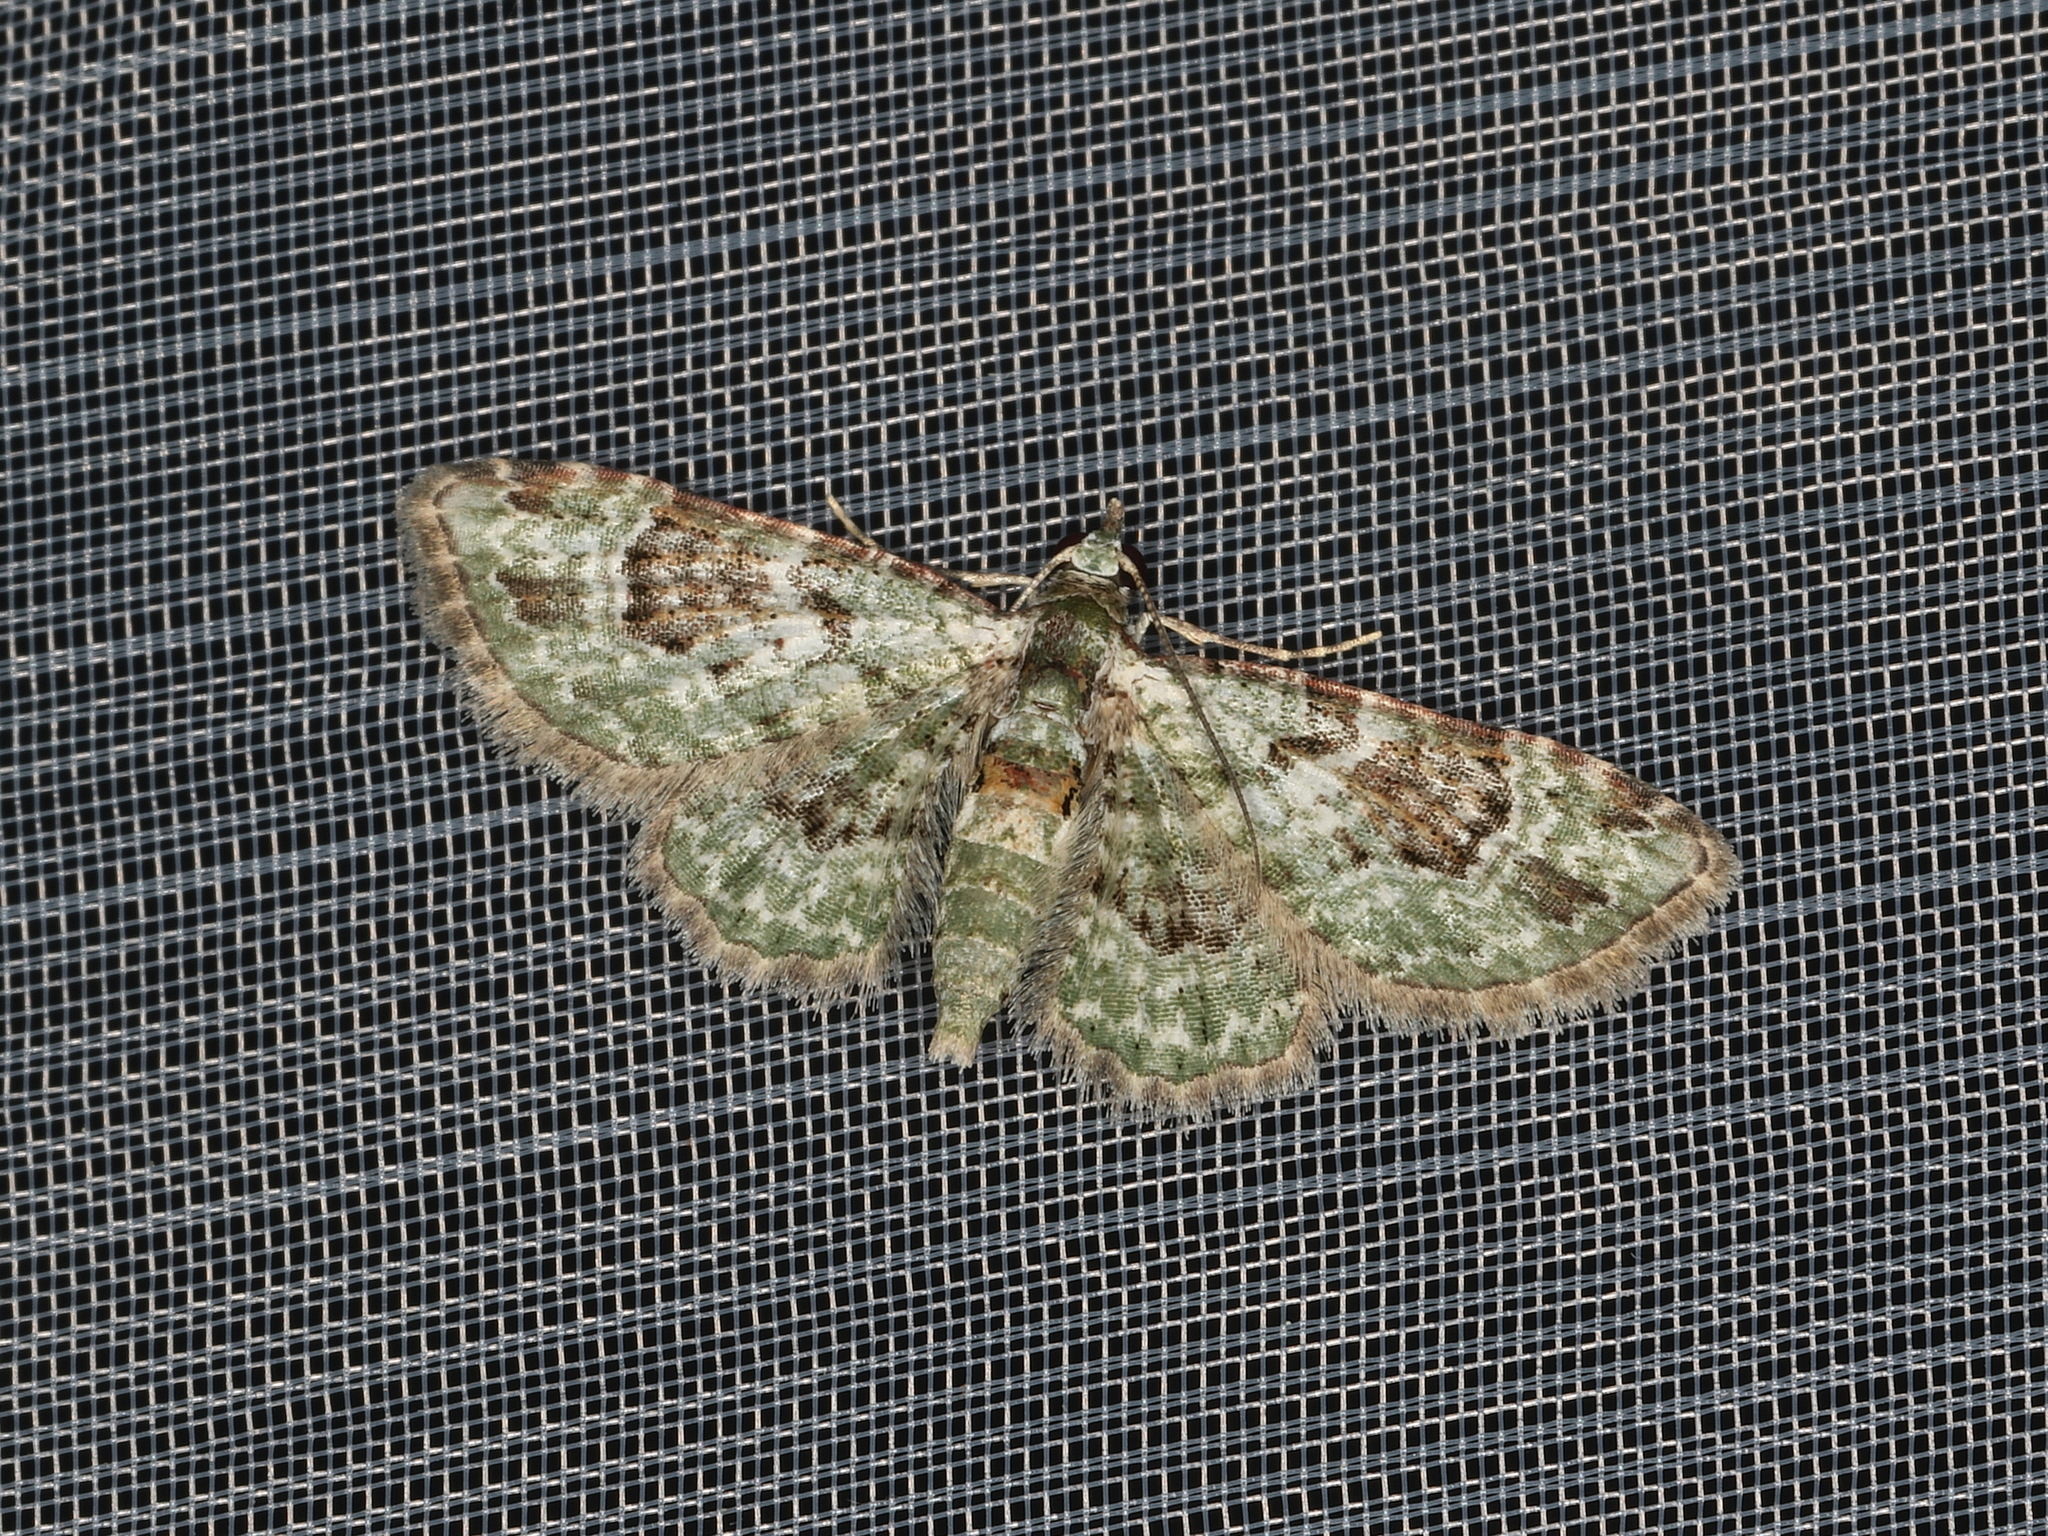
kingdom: Animalia
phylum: Arthropoda
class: Insecta
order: Lepidoptera
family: Geometridae
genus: Calluga
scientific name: Calluga costalis
